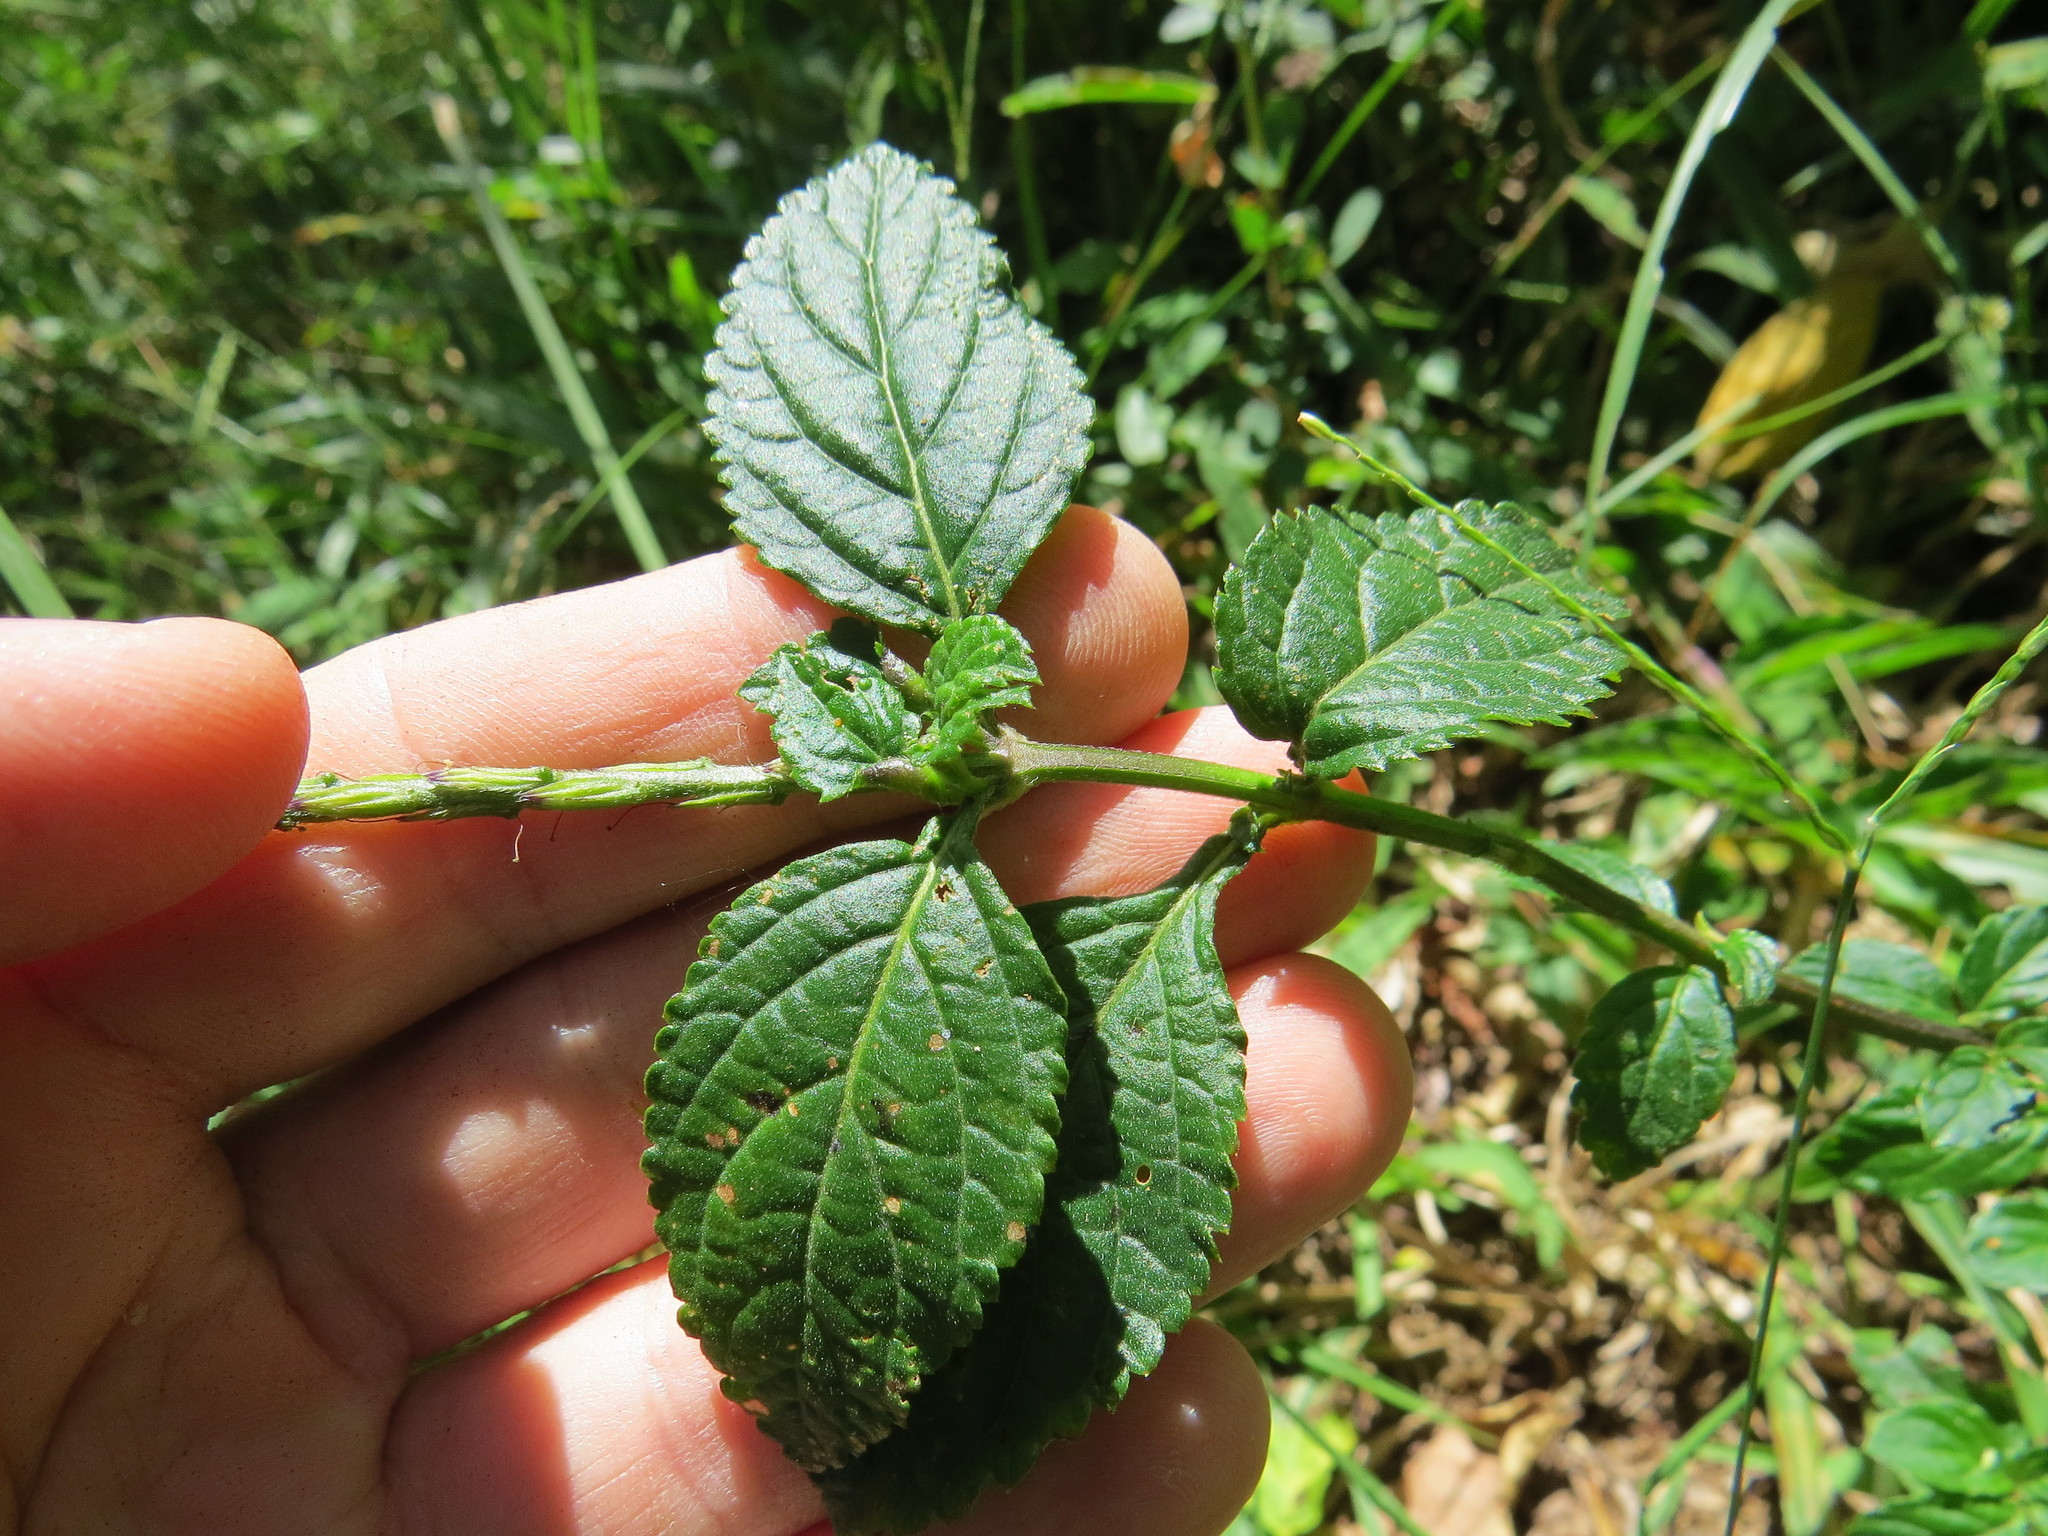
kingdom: Plantae
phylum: Tracheophyta
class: Magnoliopsida
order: Lamiales
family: Verbenaceae
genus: Stachytarpheta
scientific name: Stachytarpheta cayennensis
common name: Cayenne porterweed
